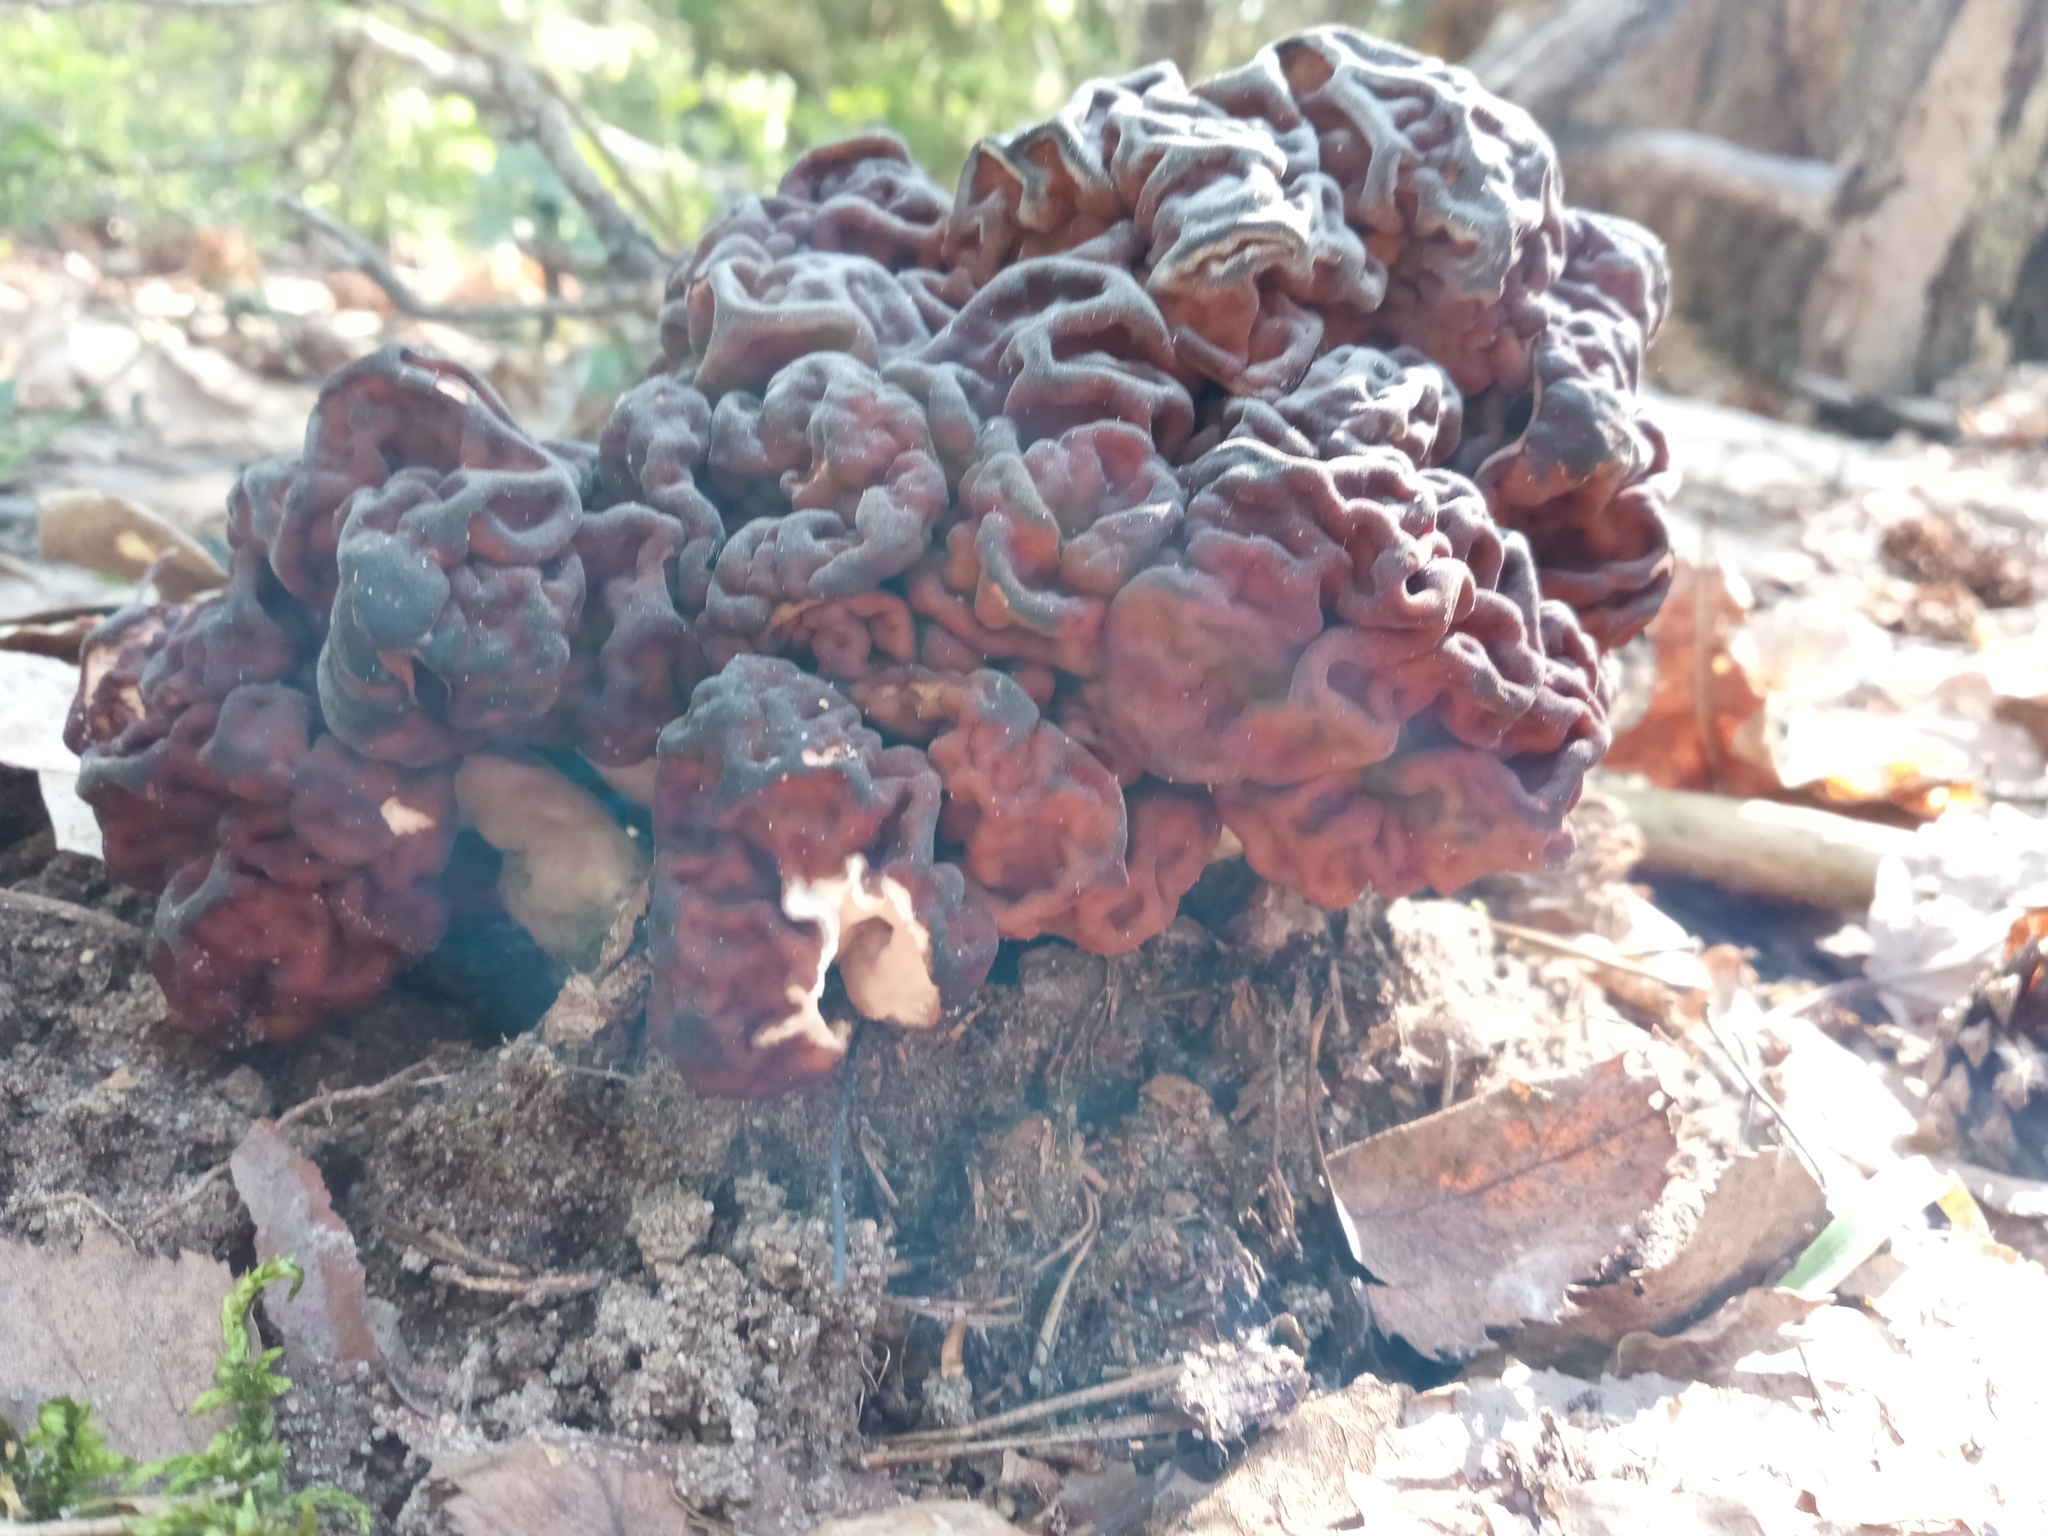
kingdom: Fungi
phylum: Ascomycota
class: Pezizomycetes
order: Pezizales
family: Discinaceae
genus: Gyromitra
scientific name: Gyromitra esculenta
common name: False morel
